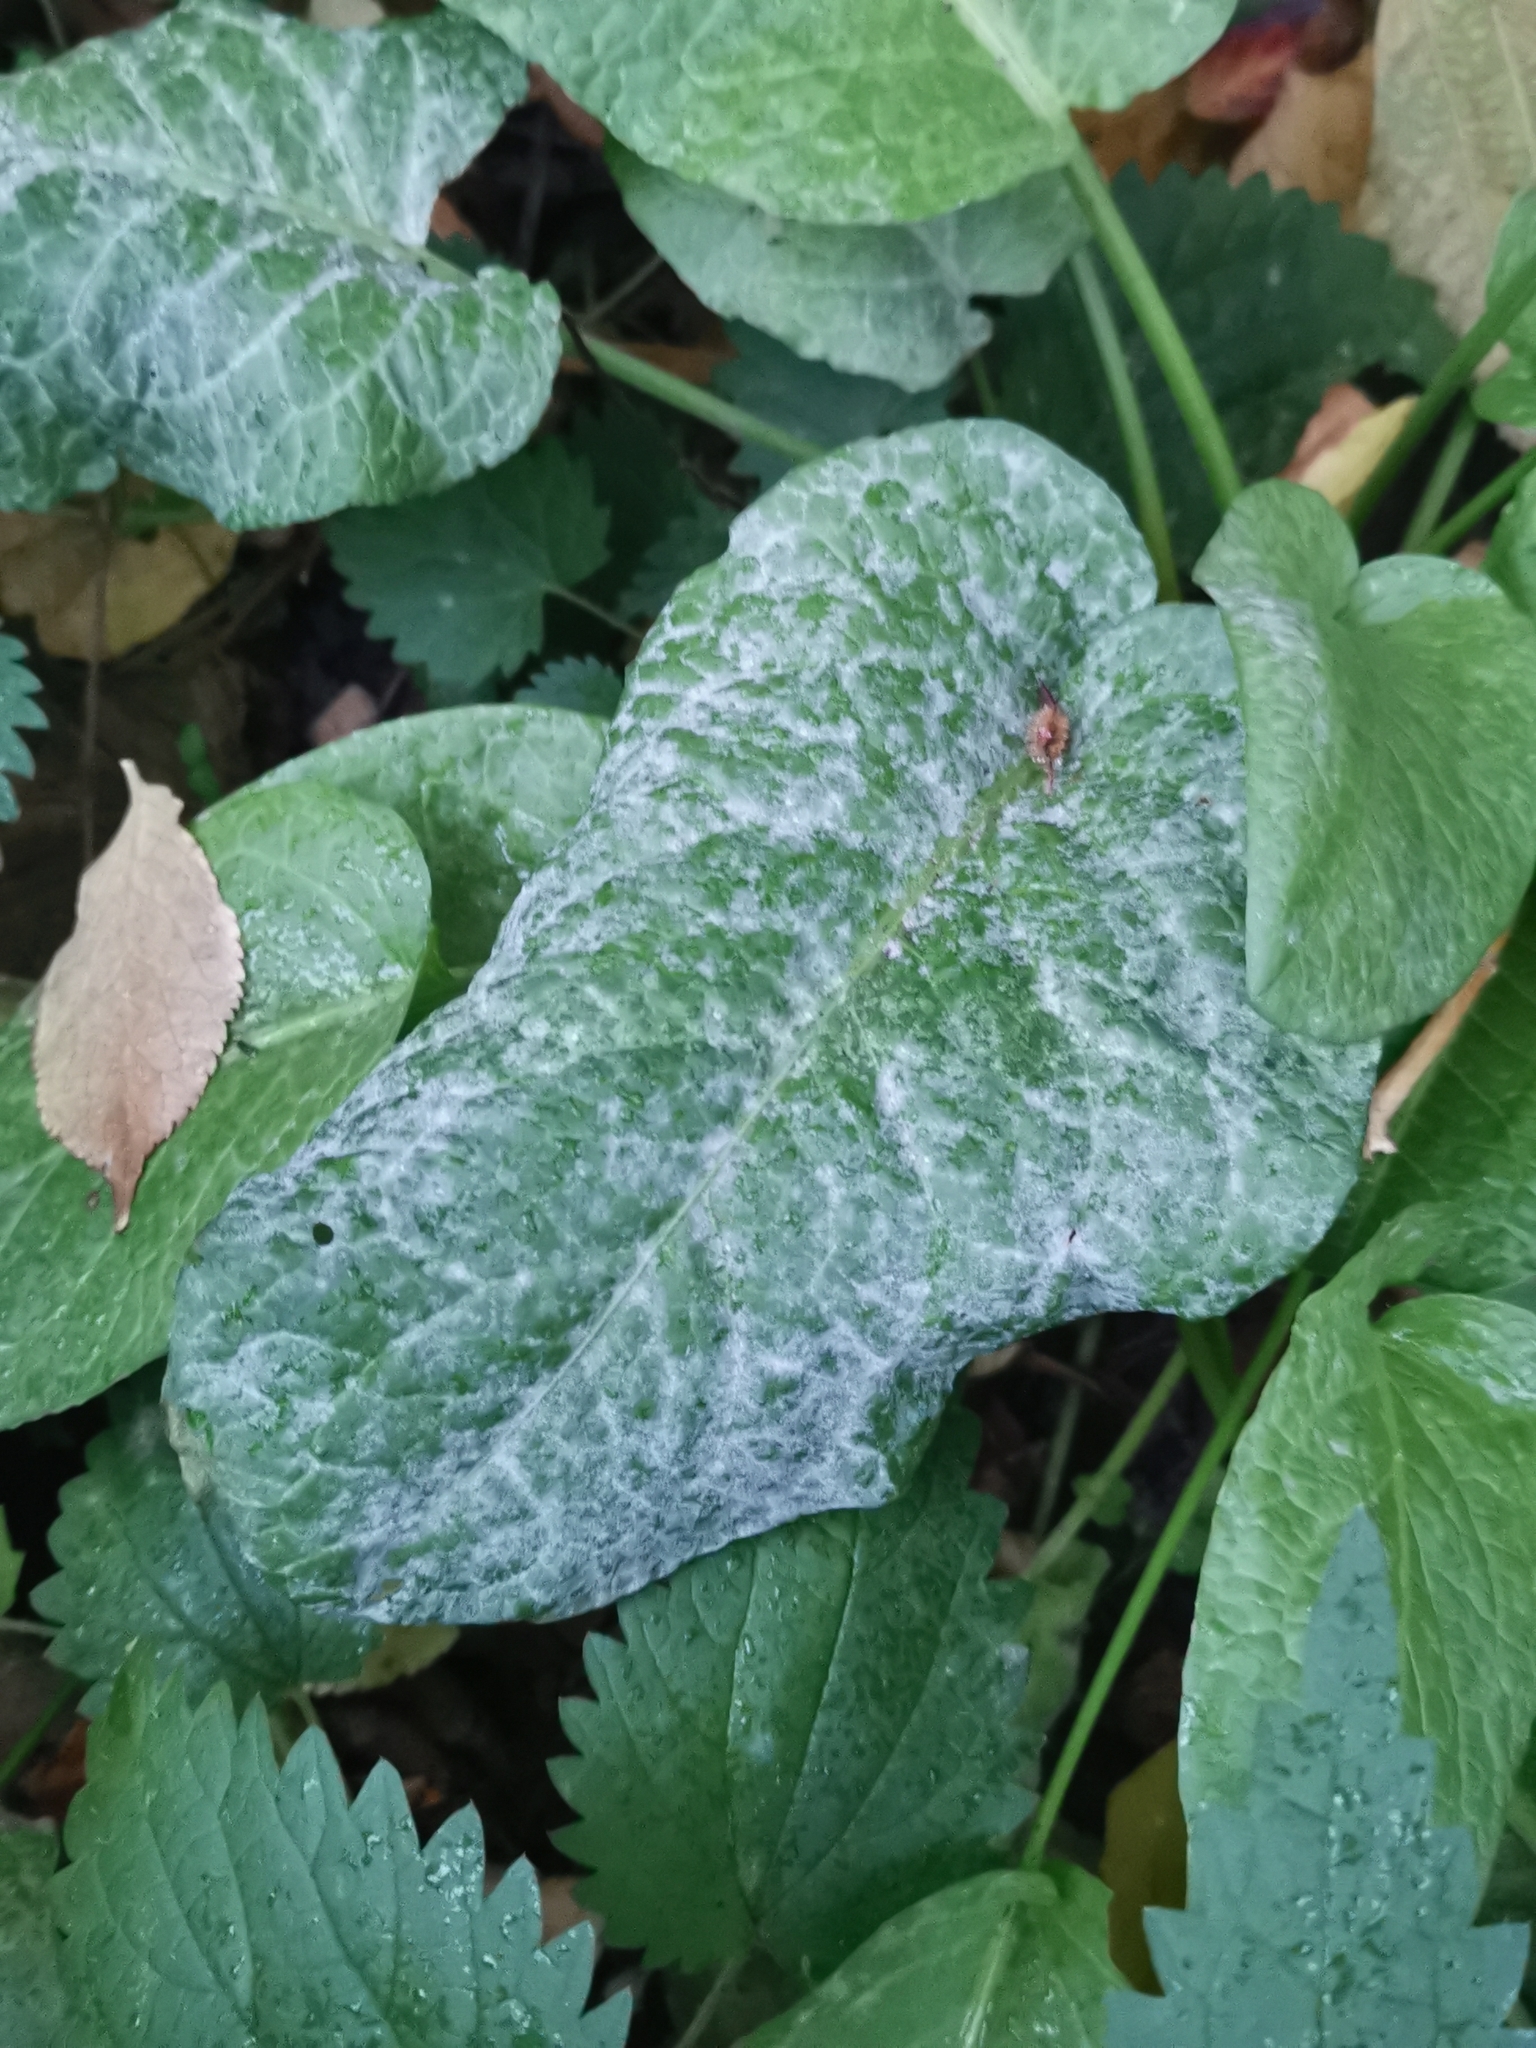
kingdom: Fungi
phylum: Ascomycota
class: Leotiomycetes
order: Helotiales
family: Erysiphaceae
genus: Erysiphe
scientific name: Erysiphe polygoni
